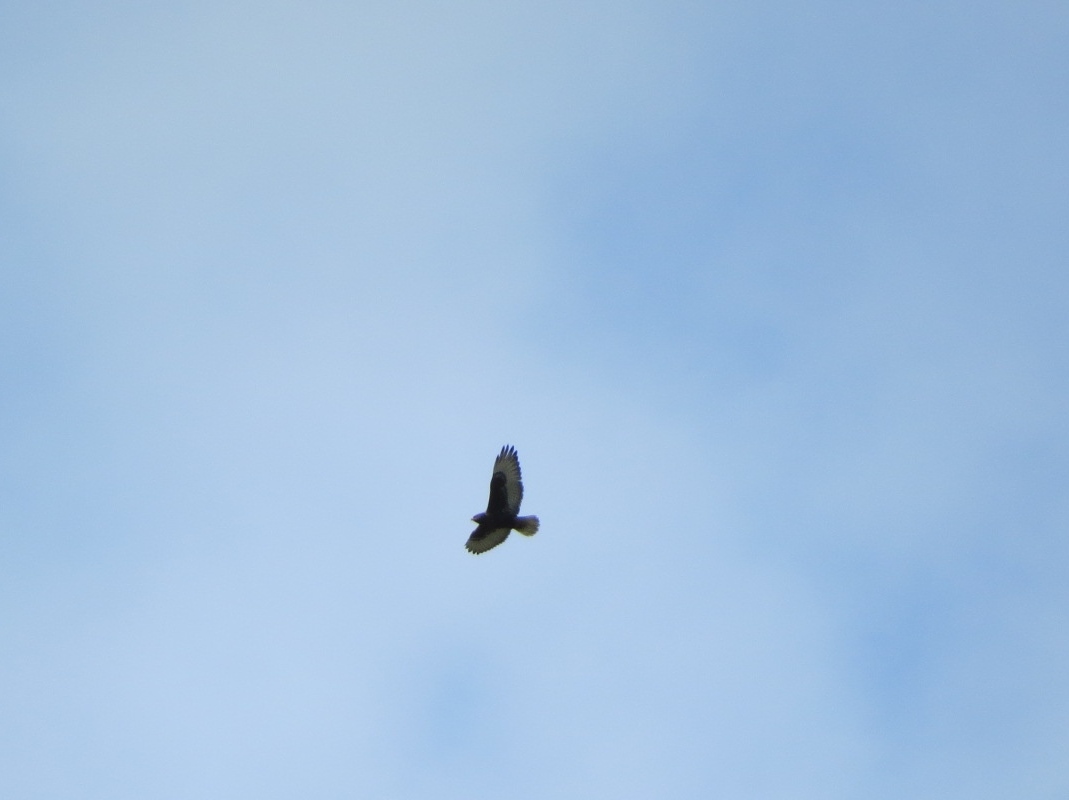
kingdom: Animalia
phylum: Chordata
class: Aves
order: Accipitriformes
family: Accipitridae
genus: Buteo
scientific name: Buteo regalis
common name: Ferruginous hawk
